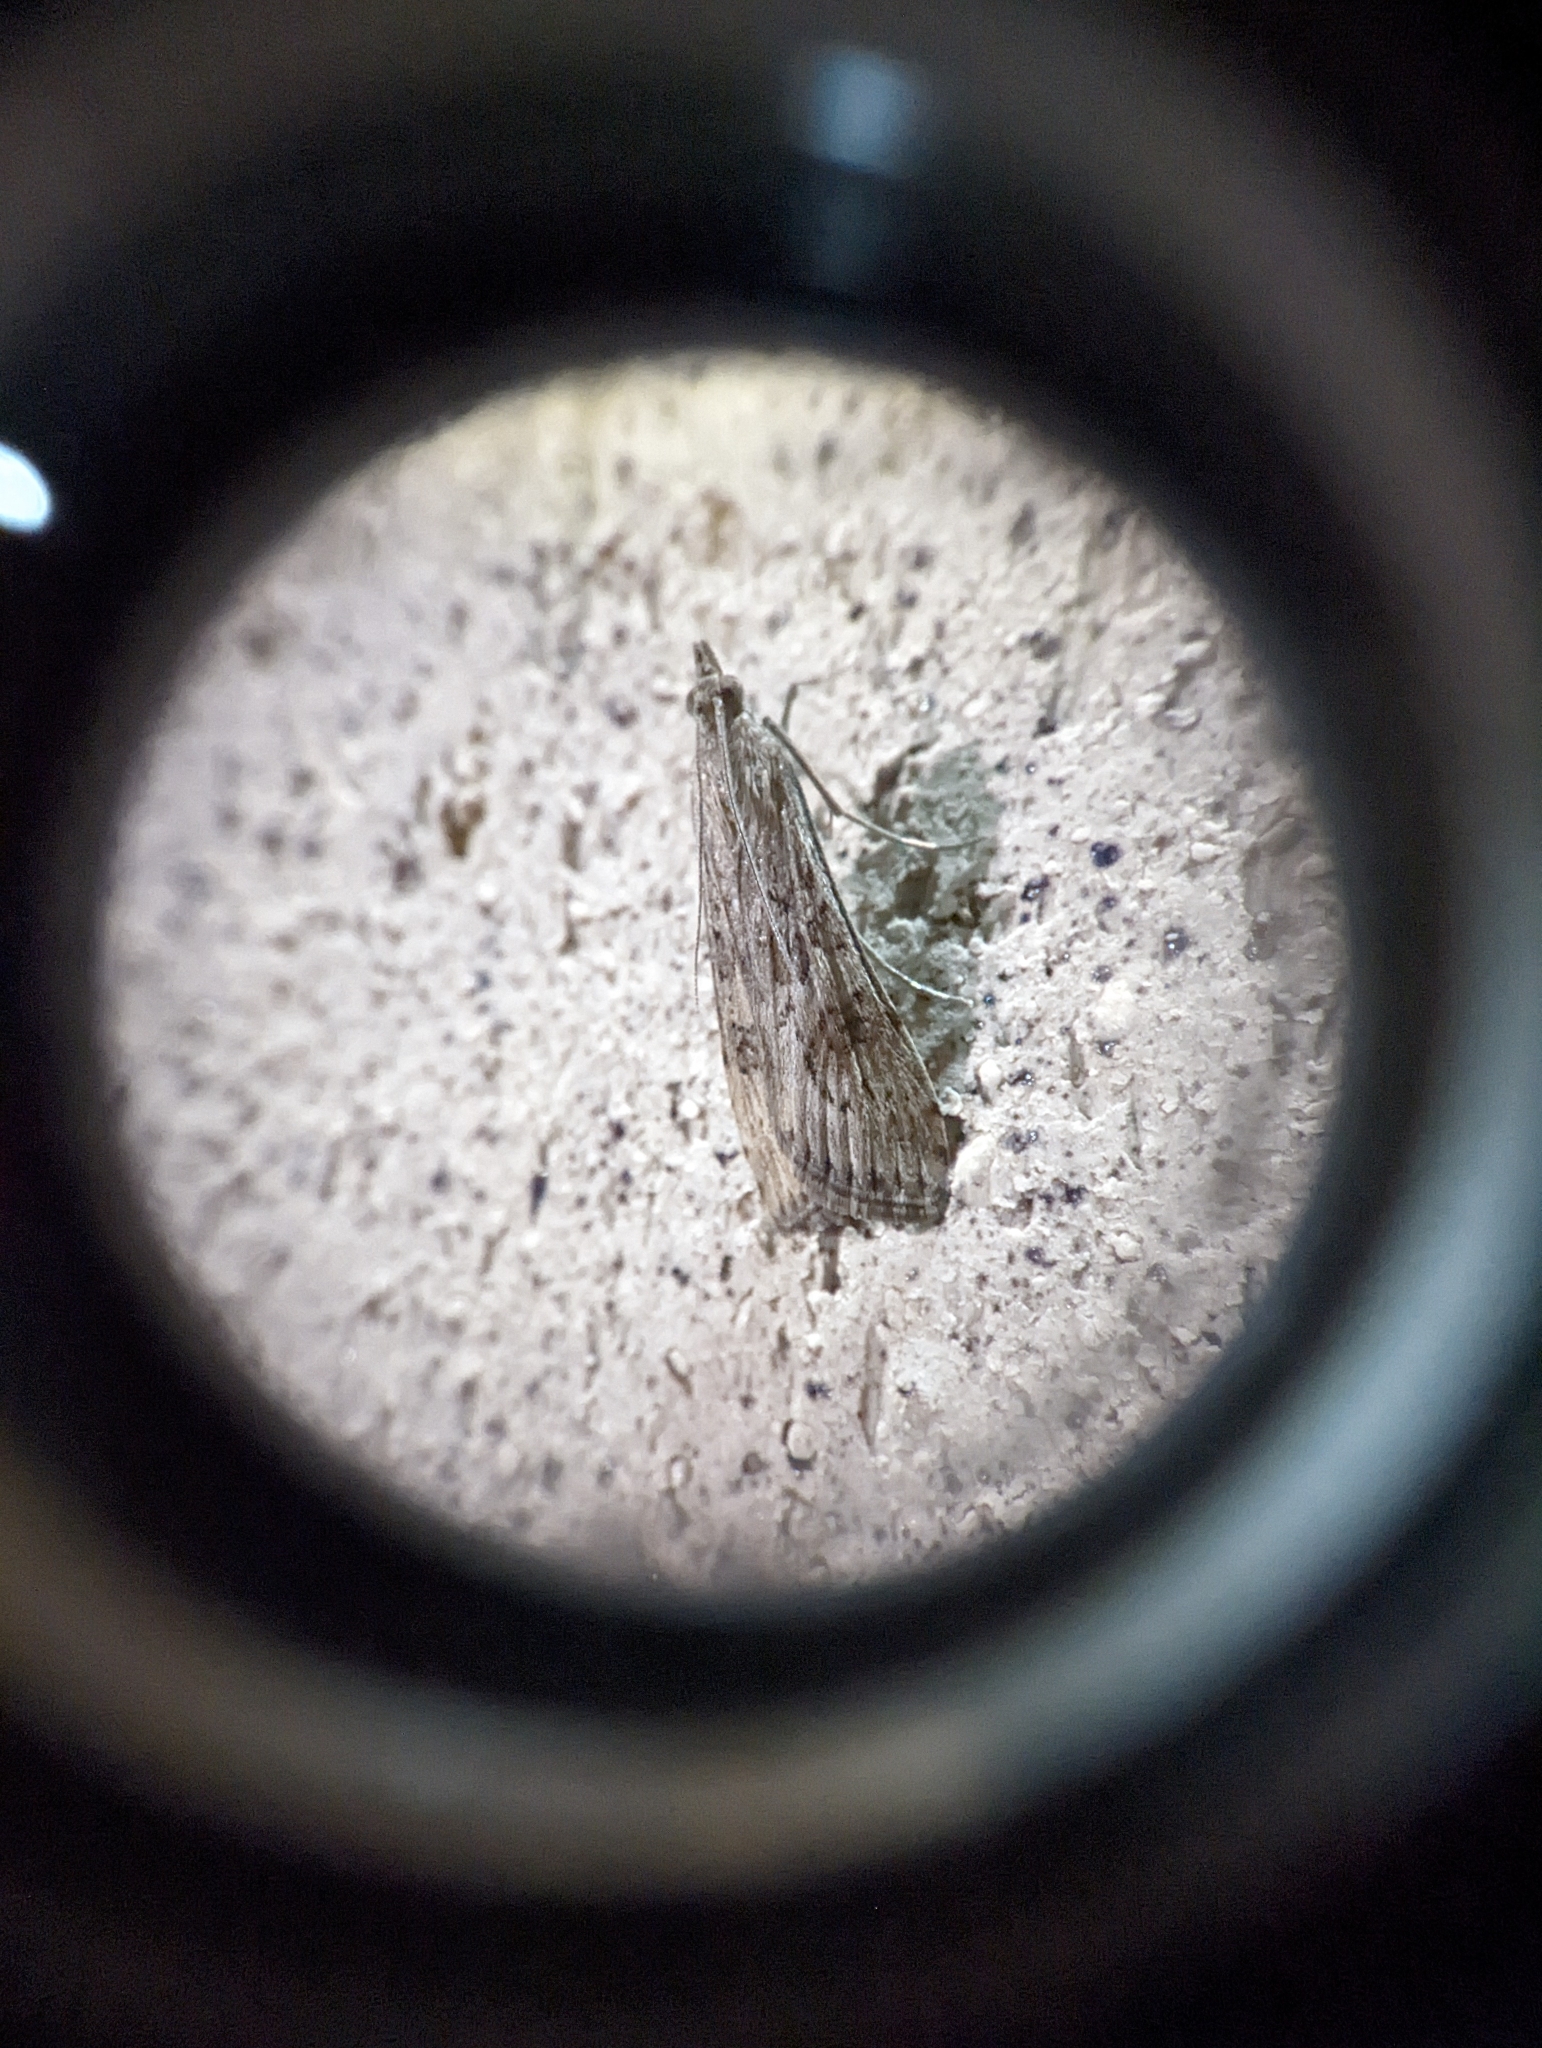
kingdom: Animalia
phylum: Arthropoda
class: Insecta
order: Lepidoptera
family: Crambidae
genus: Nomophila
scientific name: Nomophila nearctica
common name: American rush veneer
